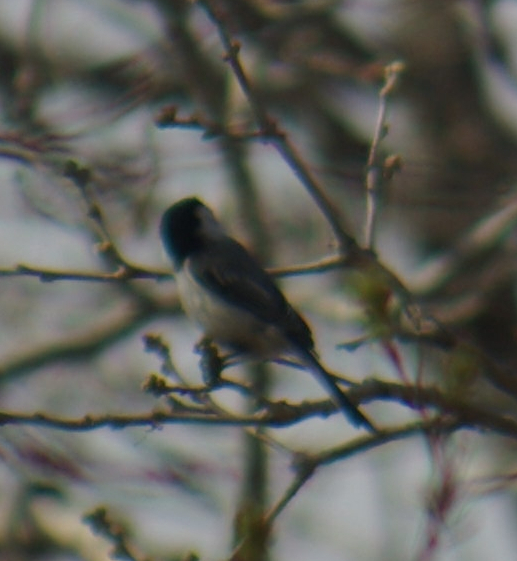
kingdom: Animalia
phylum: Chordata
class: Aves
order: Passeriformes
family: Paridae
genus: Poecile
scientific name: Poecile atricapillus
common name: Black-capped chickadee
